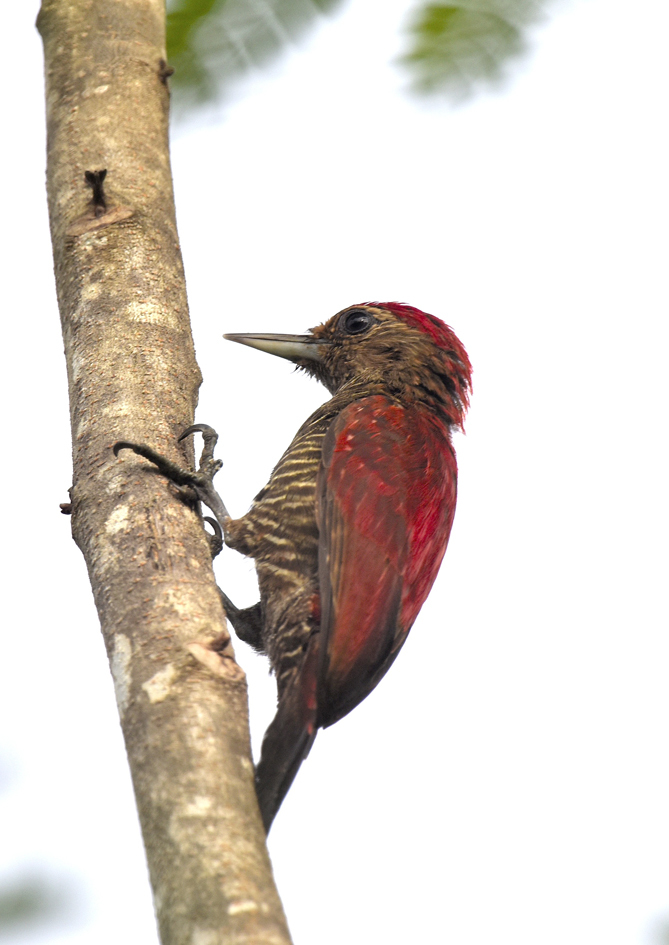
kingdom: Animalia
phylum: Chordata
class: Aves
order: Piciformes
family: Picidae
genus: Dryobates
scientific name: Dryobates sanguineus
